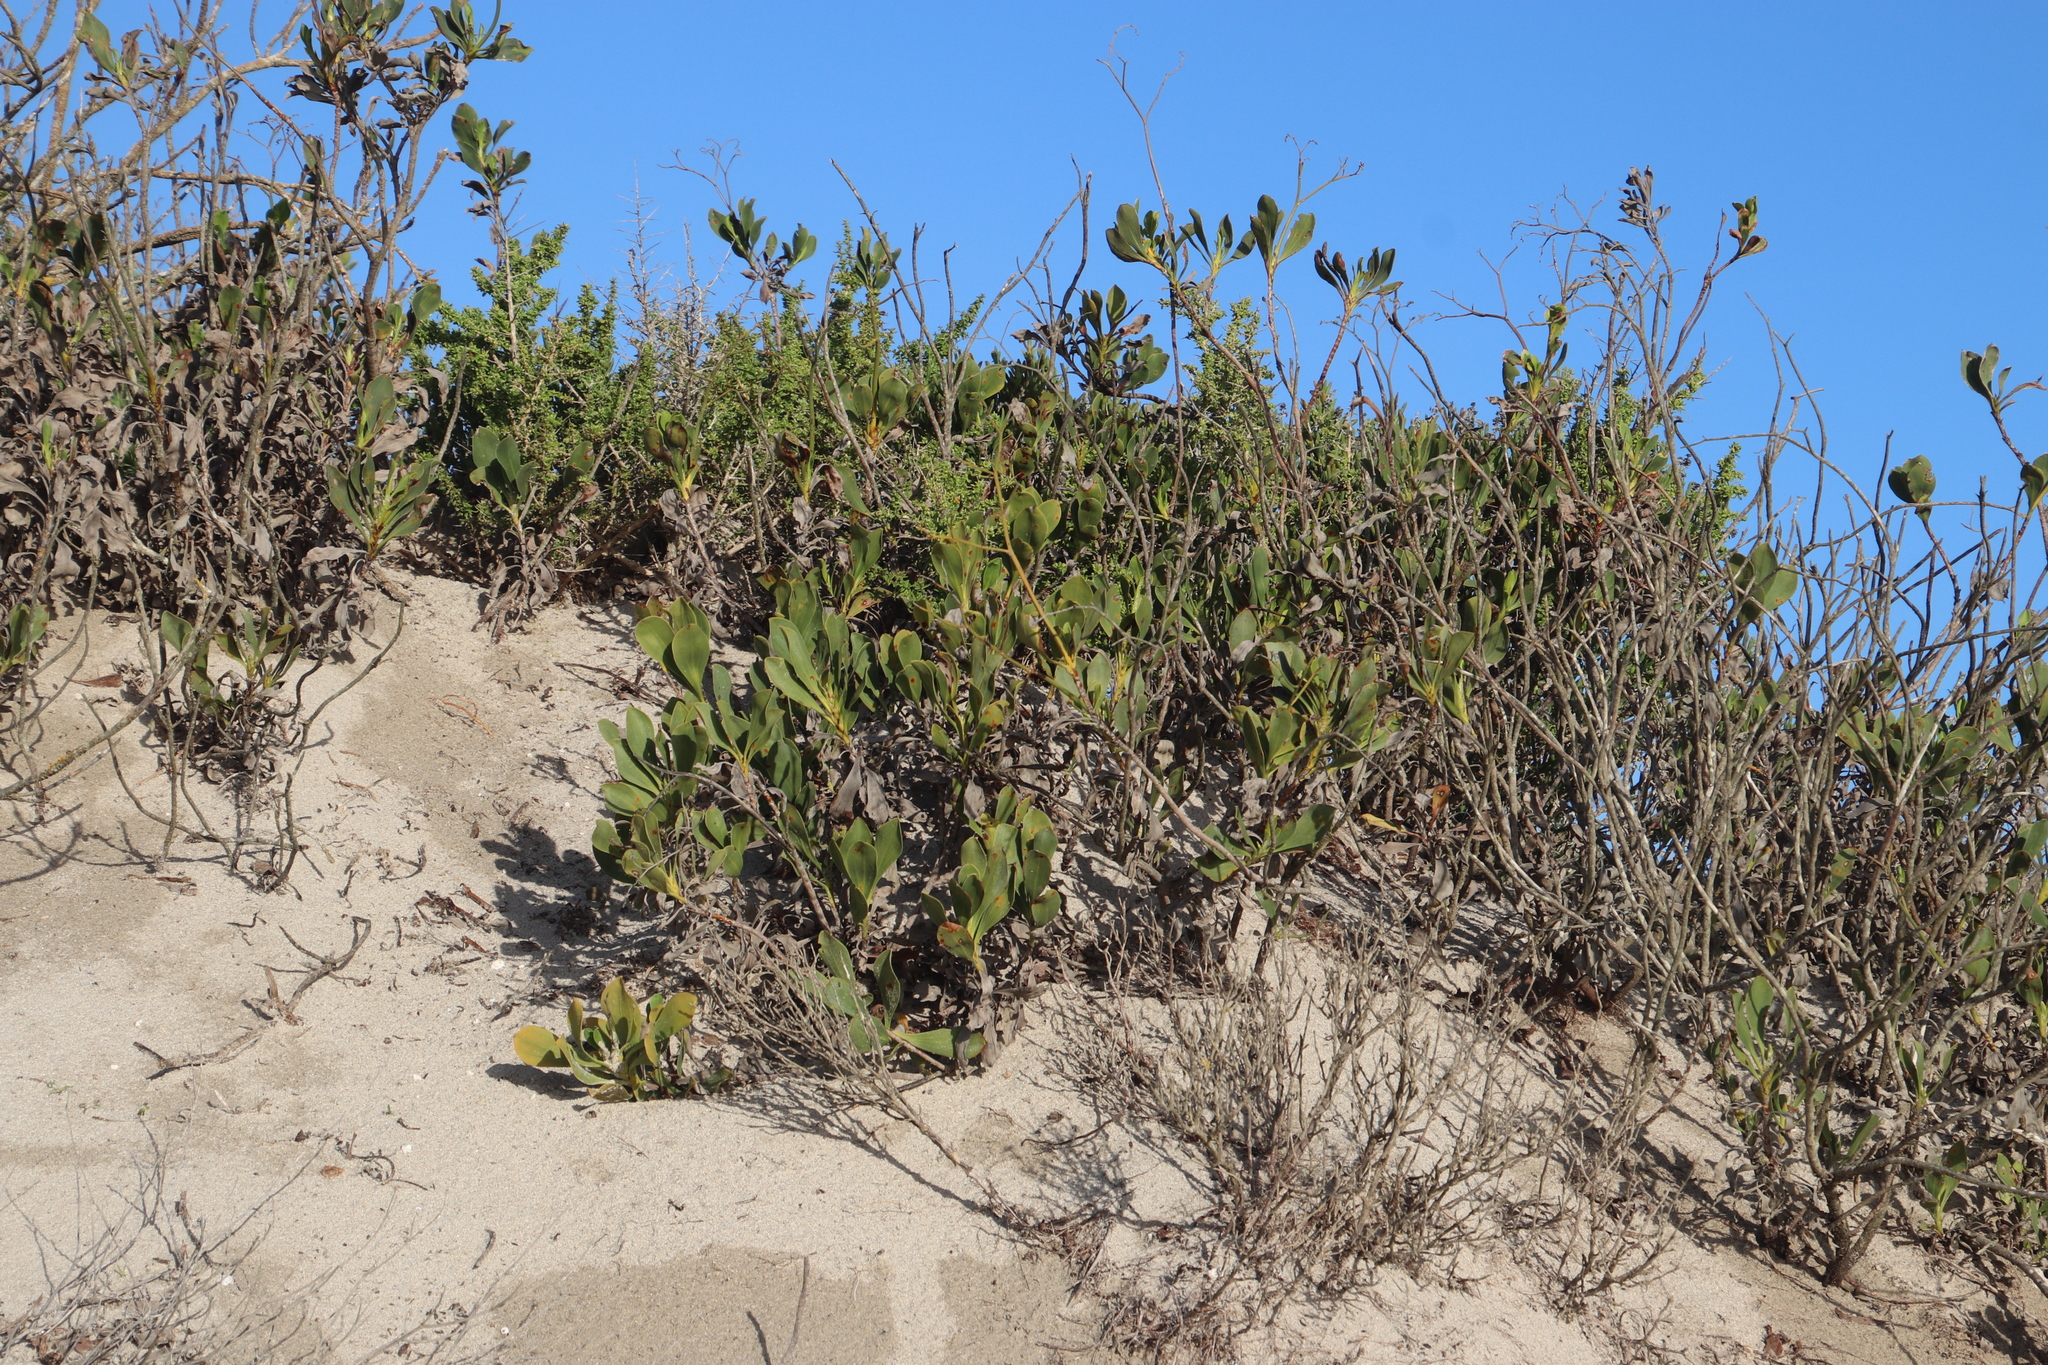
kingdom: Plantae
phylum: Tracheophyta
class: Magnoliopsida
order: Caryophyllales
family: Plumbaginaceae
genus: Limonium
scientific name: Limonium peregrinum
